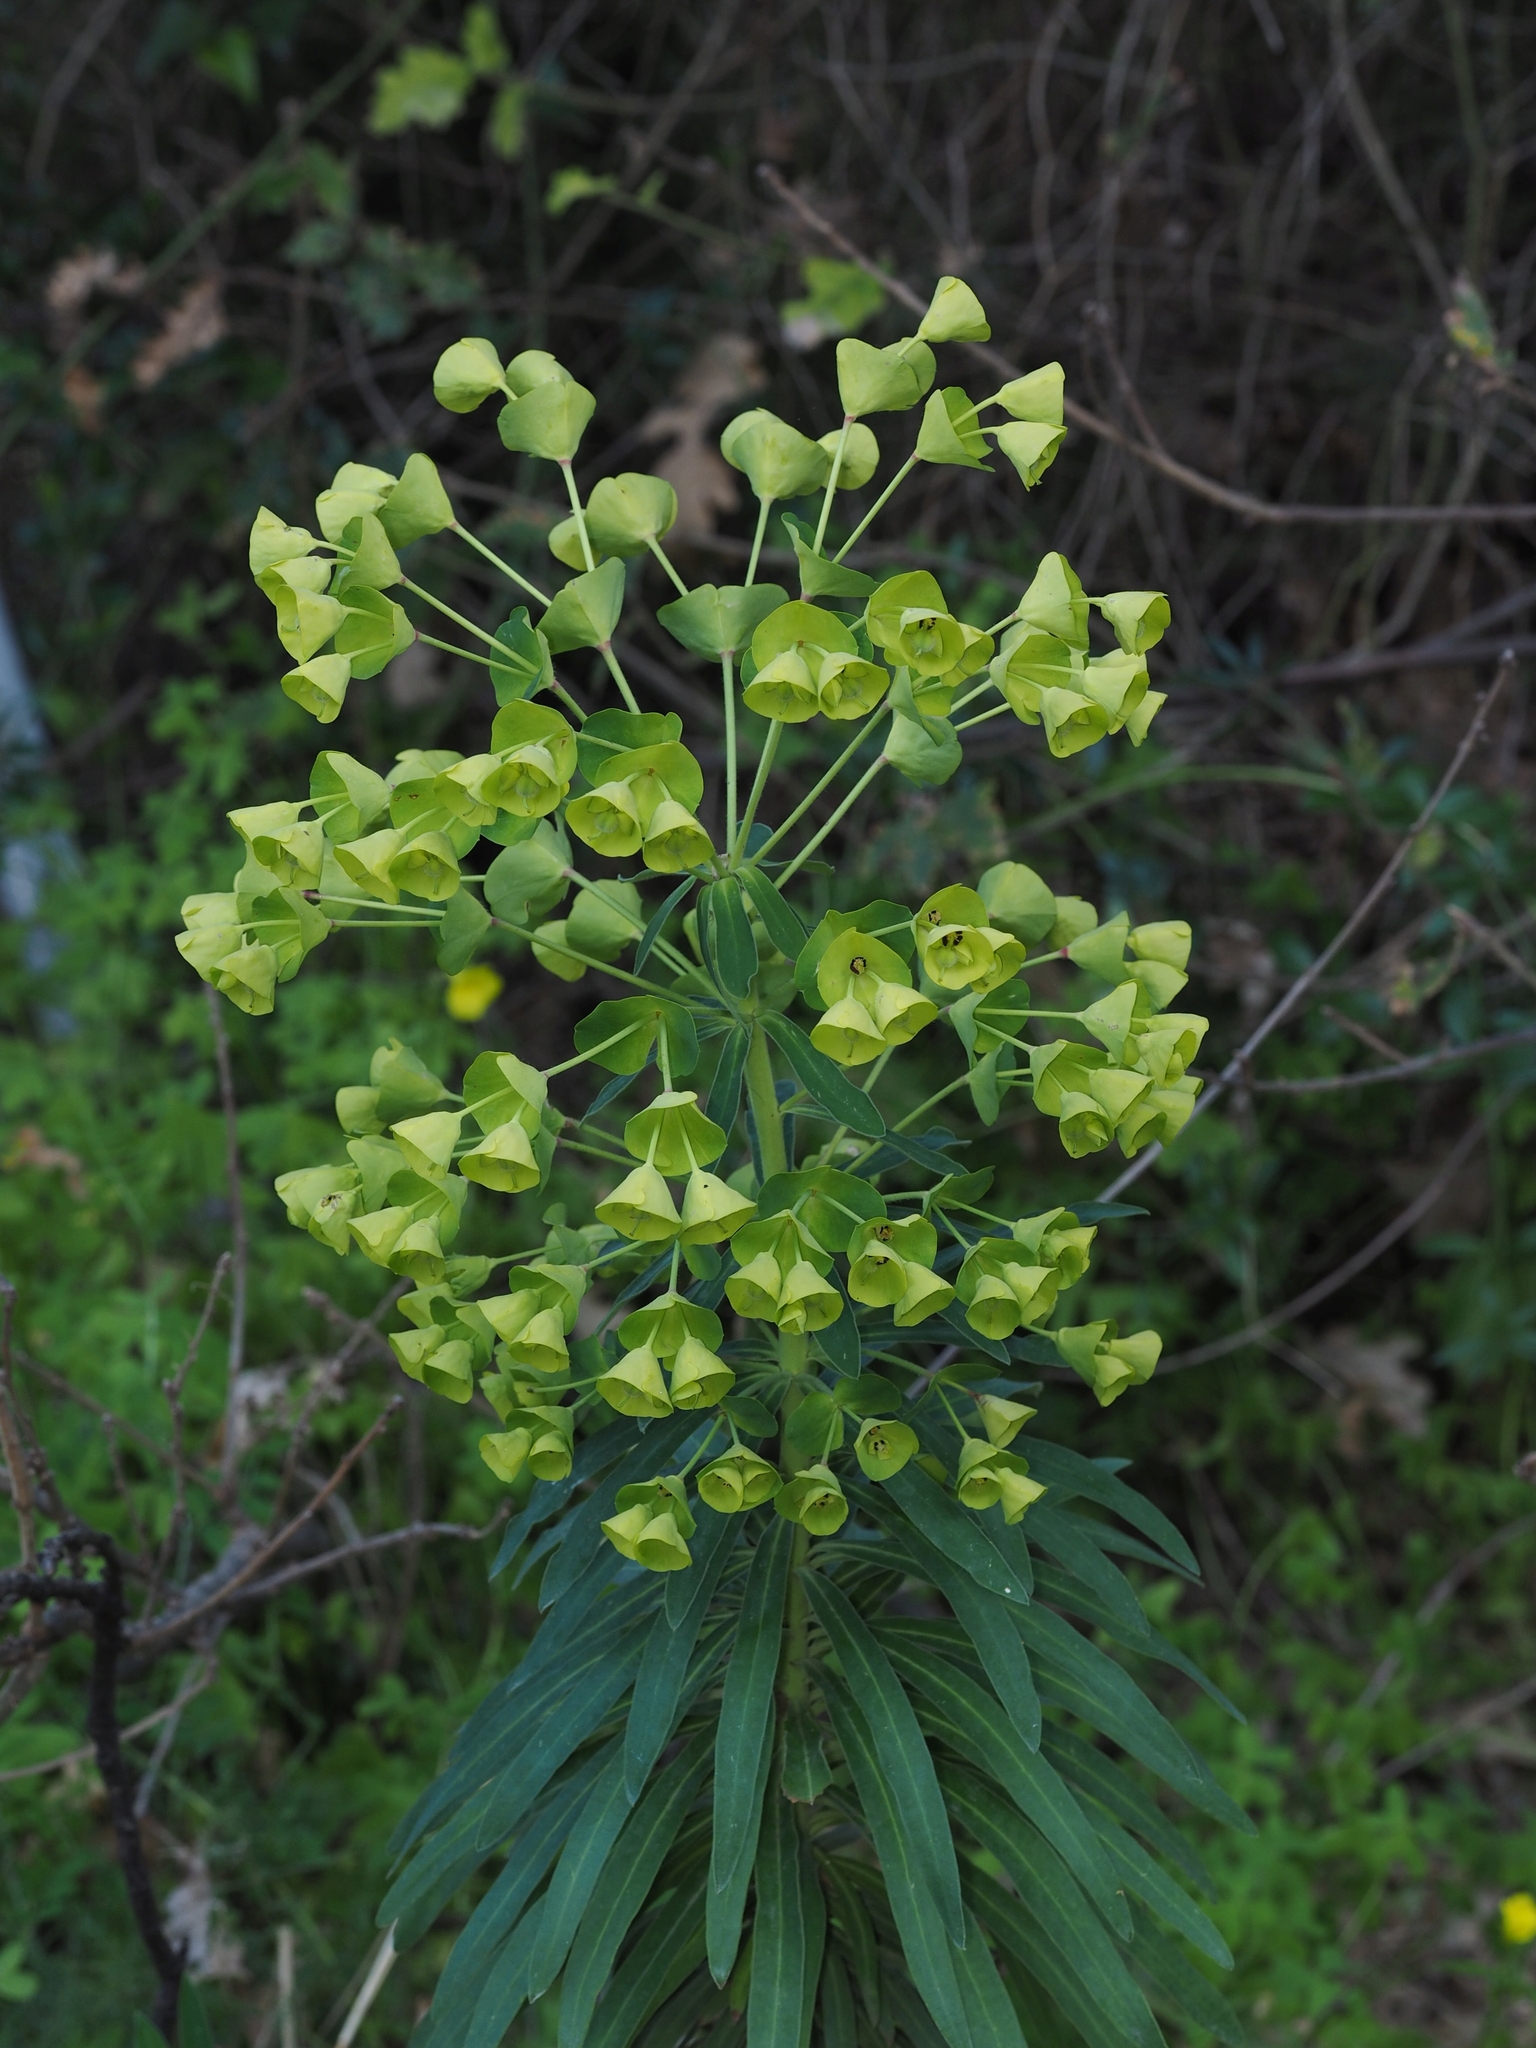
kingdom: Plantae
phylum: Tracheophyta
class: Magnoliopsida
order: Malpighiales
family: Euphorbiaceae
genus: Euphorbia
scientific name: Euphorbia characias
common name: Mediterranean spurge
